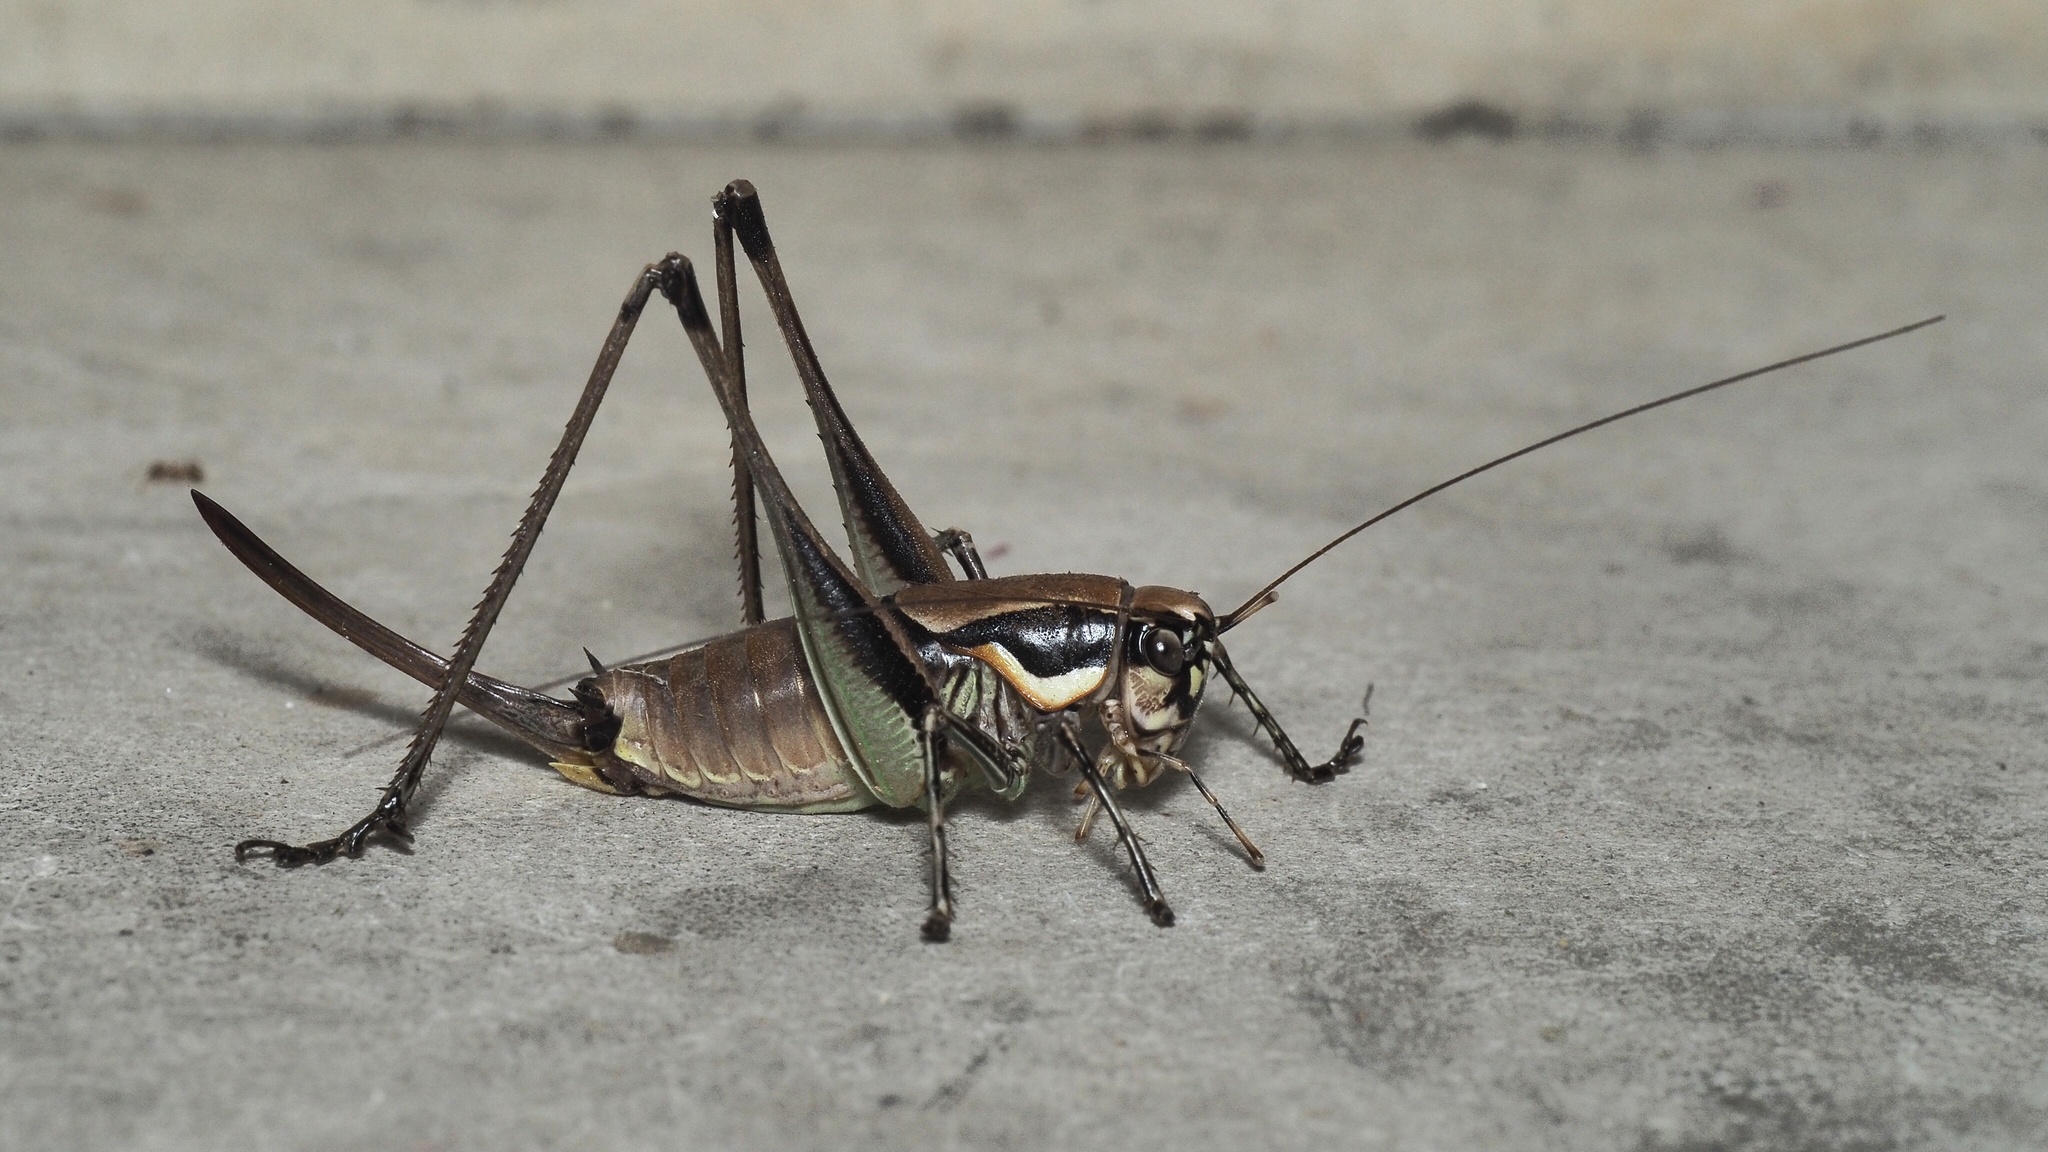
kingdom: Animalia
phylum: Arthropoda
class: Insecta
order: Orthoptera
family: Tettigoniidae
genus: Eupholidoptera
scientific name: Eupholidoptera smyrnensis
